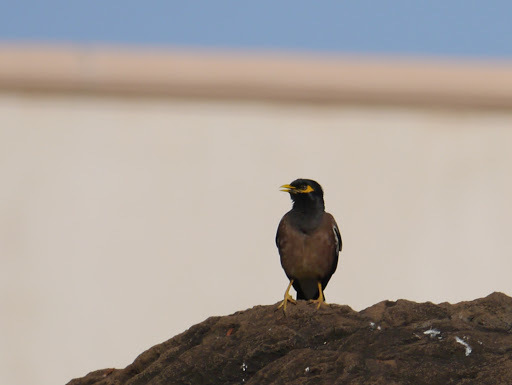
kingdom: Animalia
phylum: Chordata
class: Aves
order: Passeriformes
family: Sturnidae
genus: Acridotheres
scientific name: Acridotheres tristis
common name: Common myna
